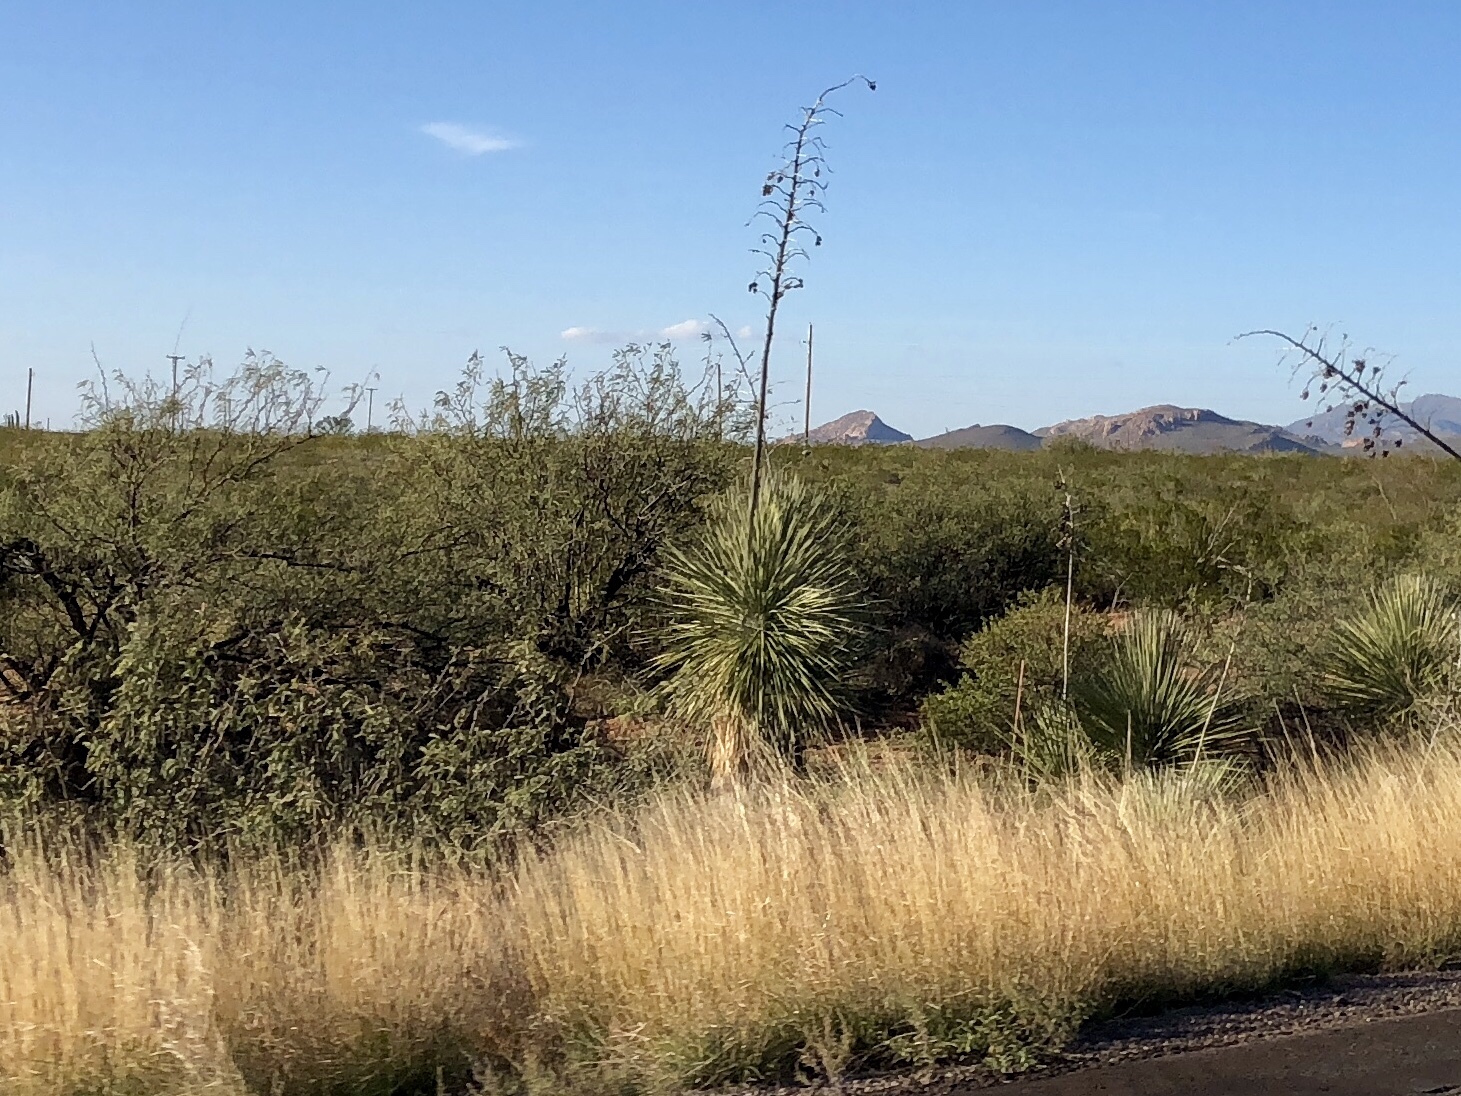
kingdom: Plantae
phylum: Tracheophyta
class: Liliopsida
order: Asparagales
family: Asparagaceae
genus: Yucca
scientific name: Yucca elata
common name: Palmella
